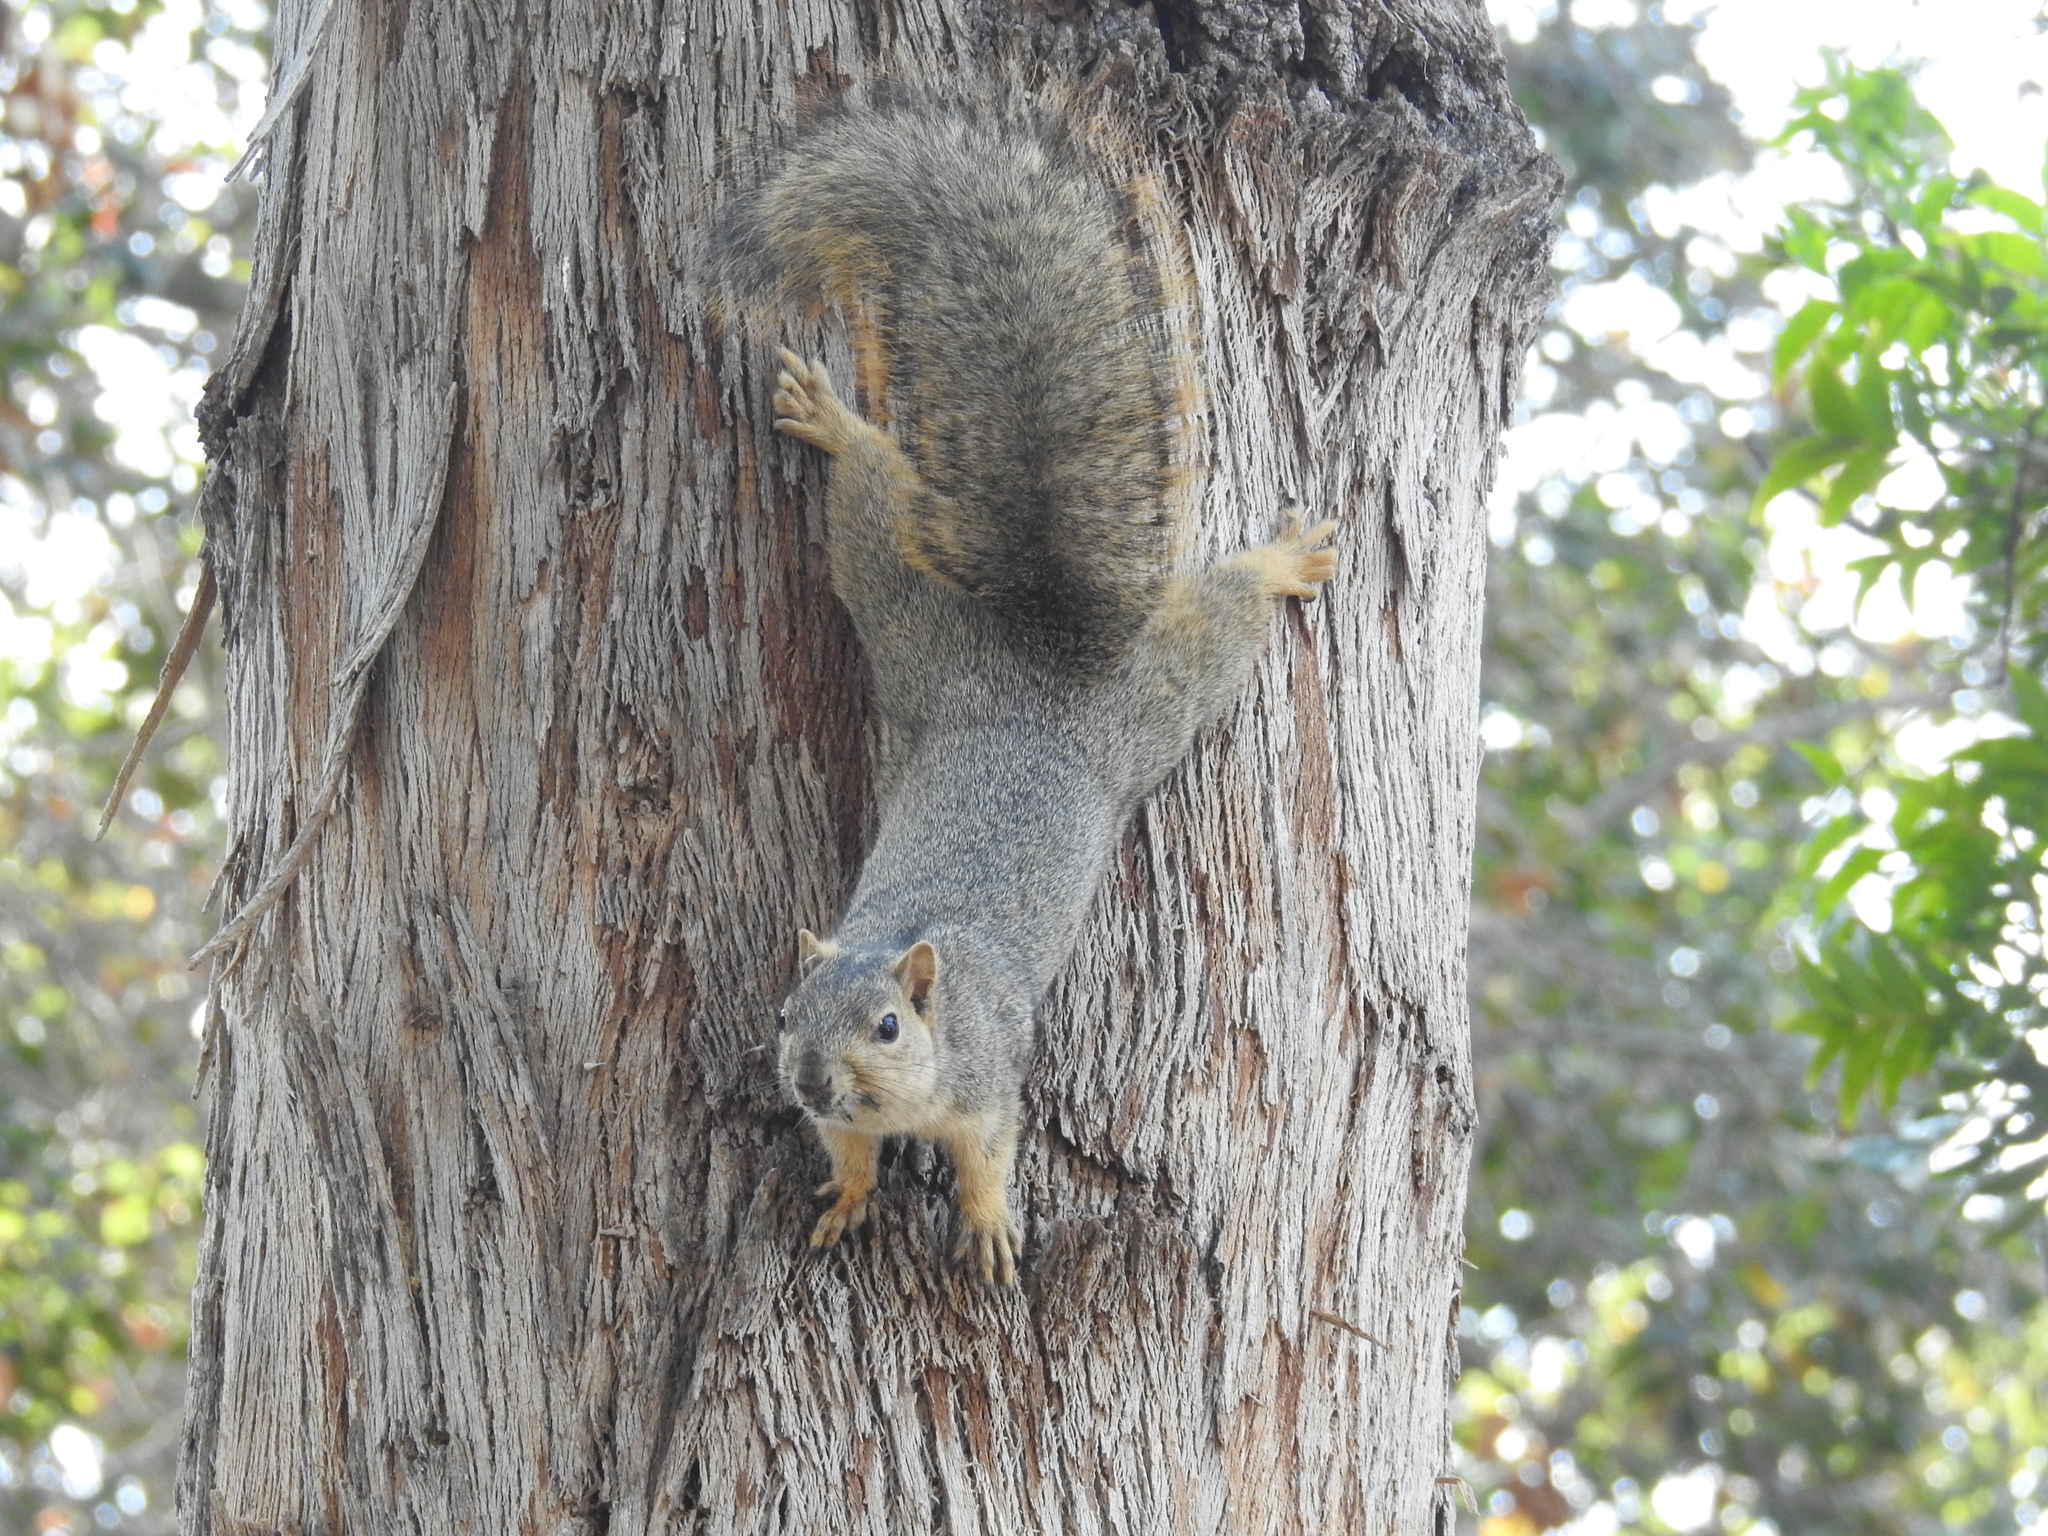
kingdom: Animalia
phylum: Chordata
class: Mammalia
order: Rodentia
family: Sciuridae
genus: Sciurus
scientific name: Sciurus niger
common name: Fox squirrel
